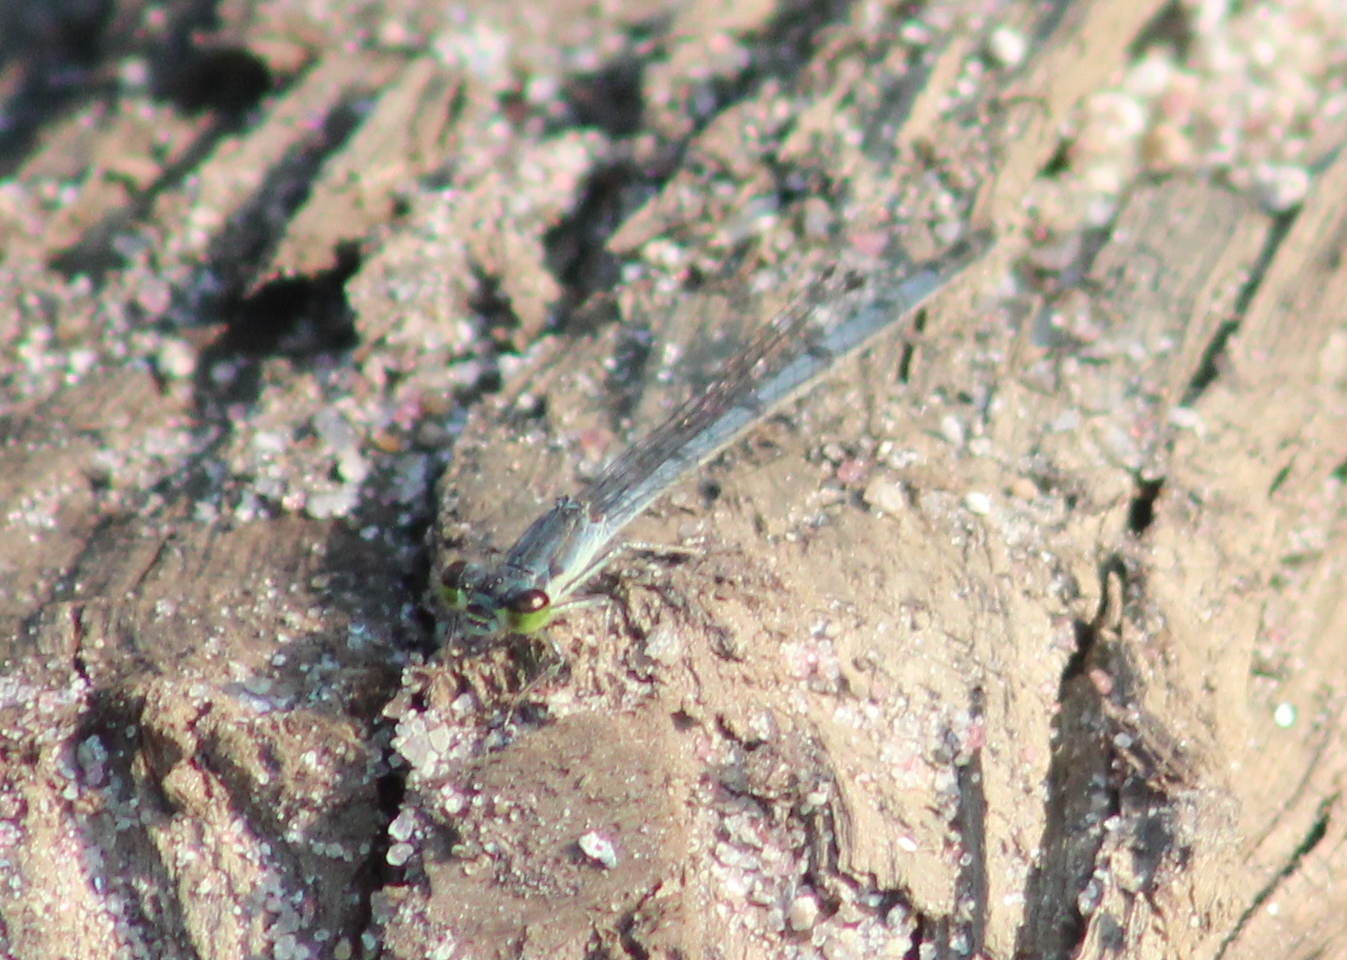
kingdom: Animalia
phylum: Arthropoda
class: Insecta
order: Odonata
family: Coenagrionidae
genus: Ischnura
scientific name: Ischnura posita
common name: Fragile forktail
